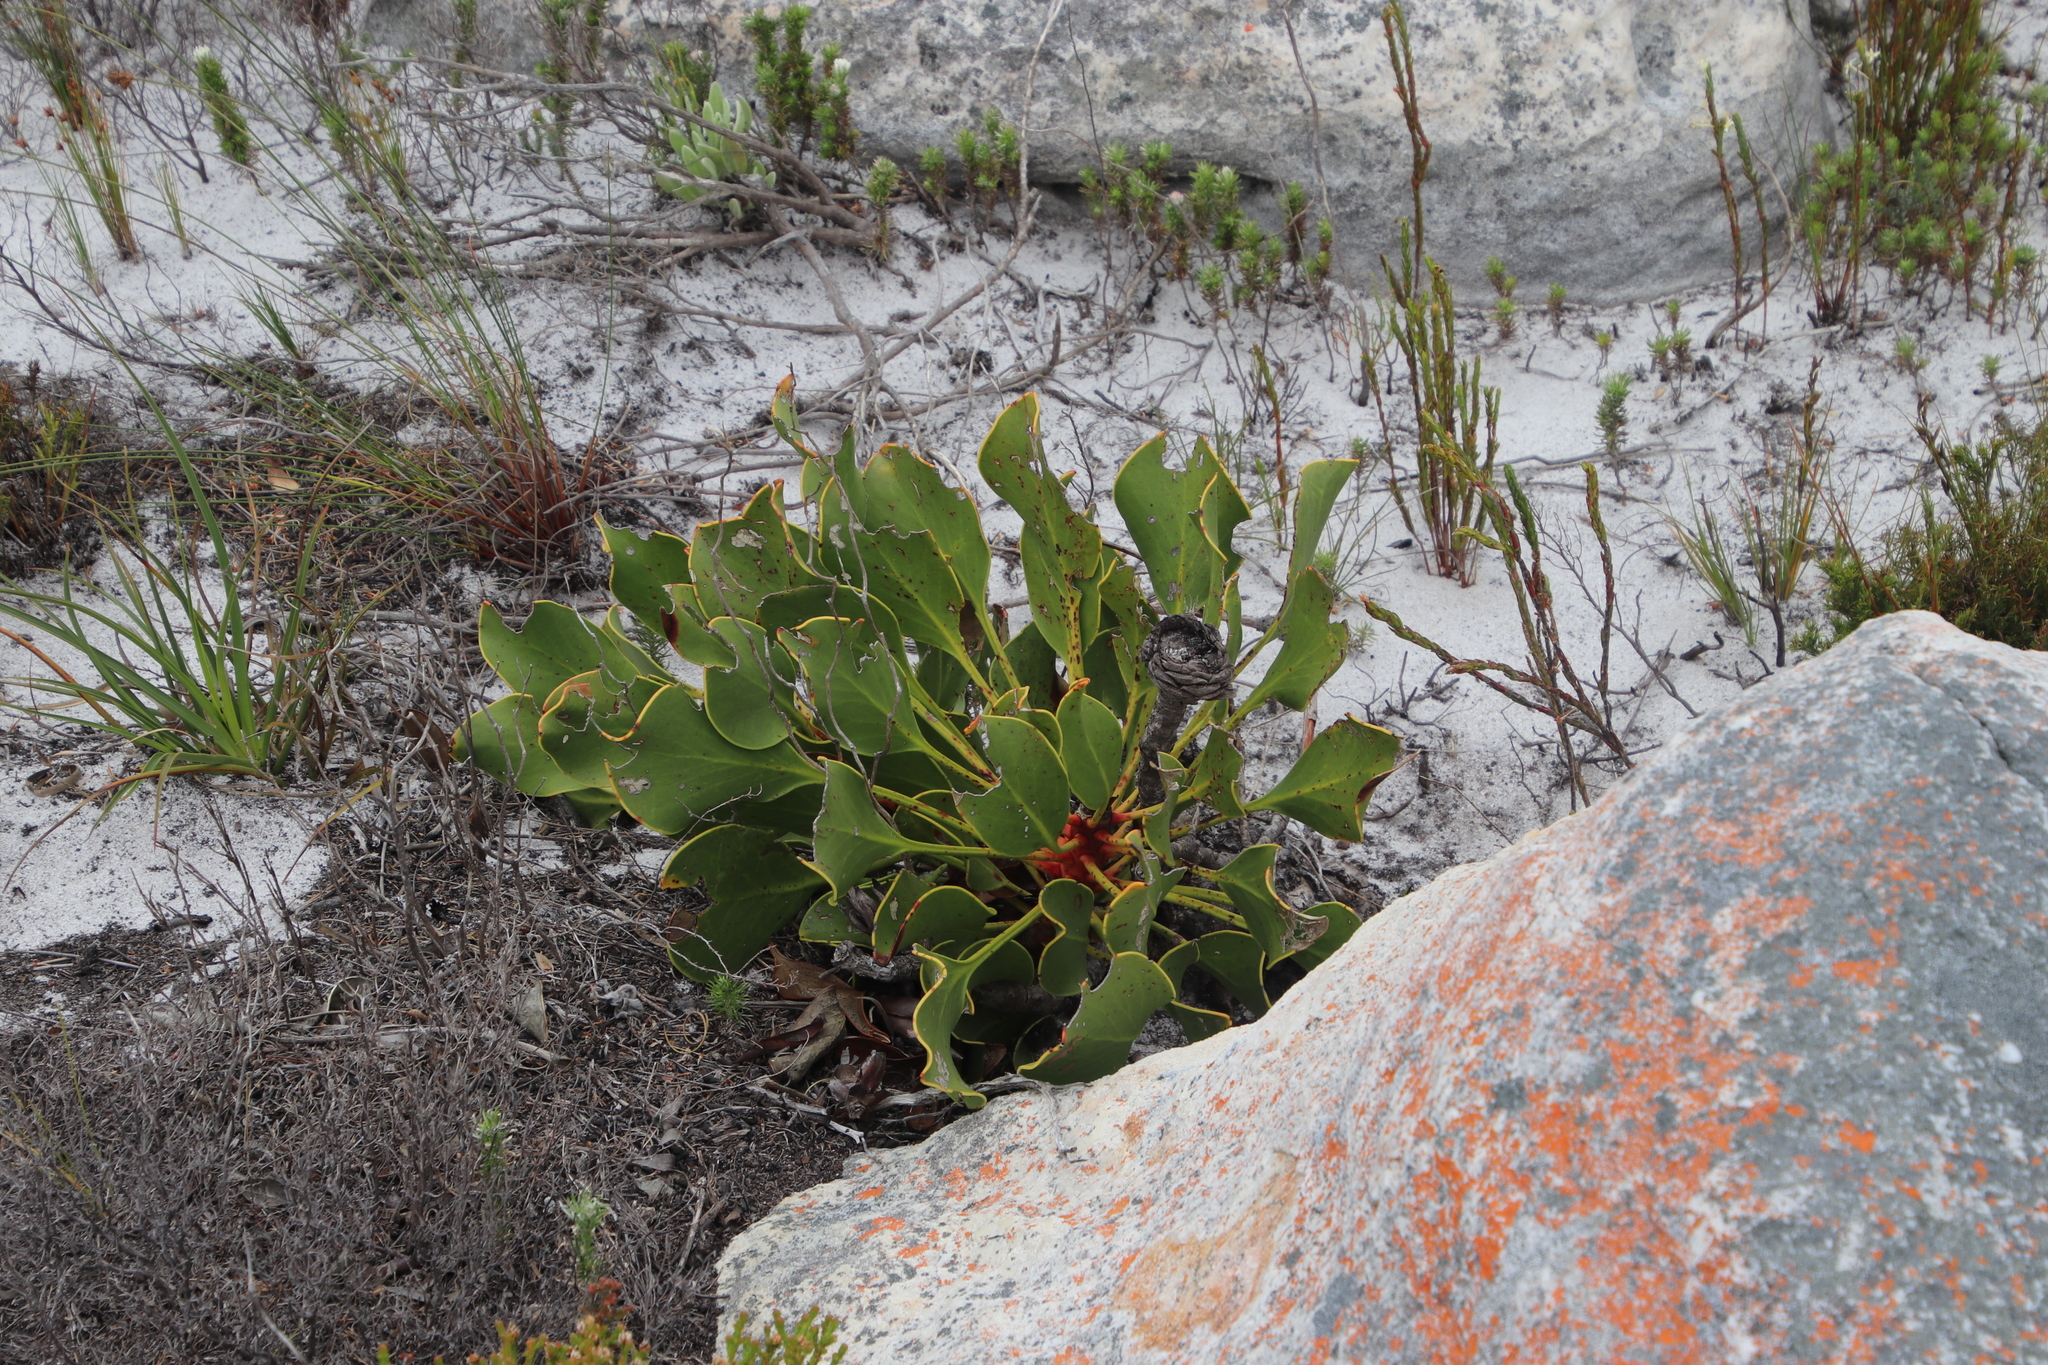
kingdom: Plantae
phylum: Tracheophyta
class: Magnoliopsida
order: Proteales
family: Proteaceae
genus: Protea
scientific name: Protea cynaroides
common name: King protea
